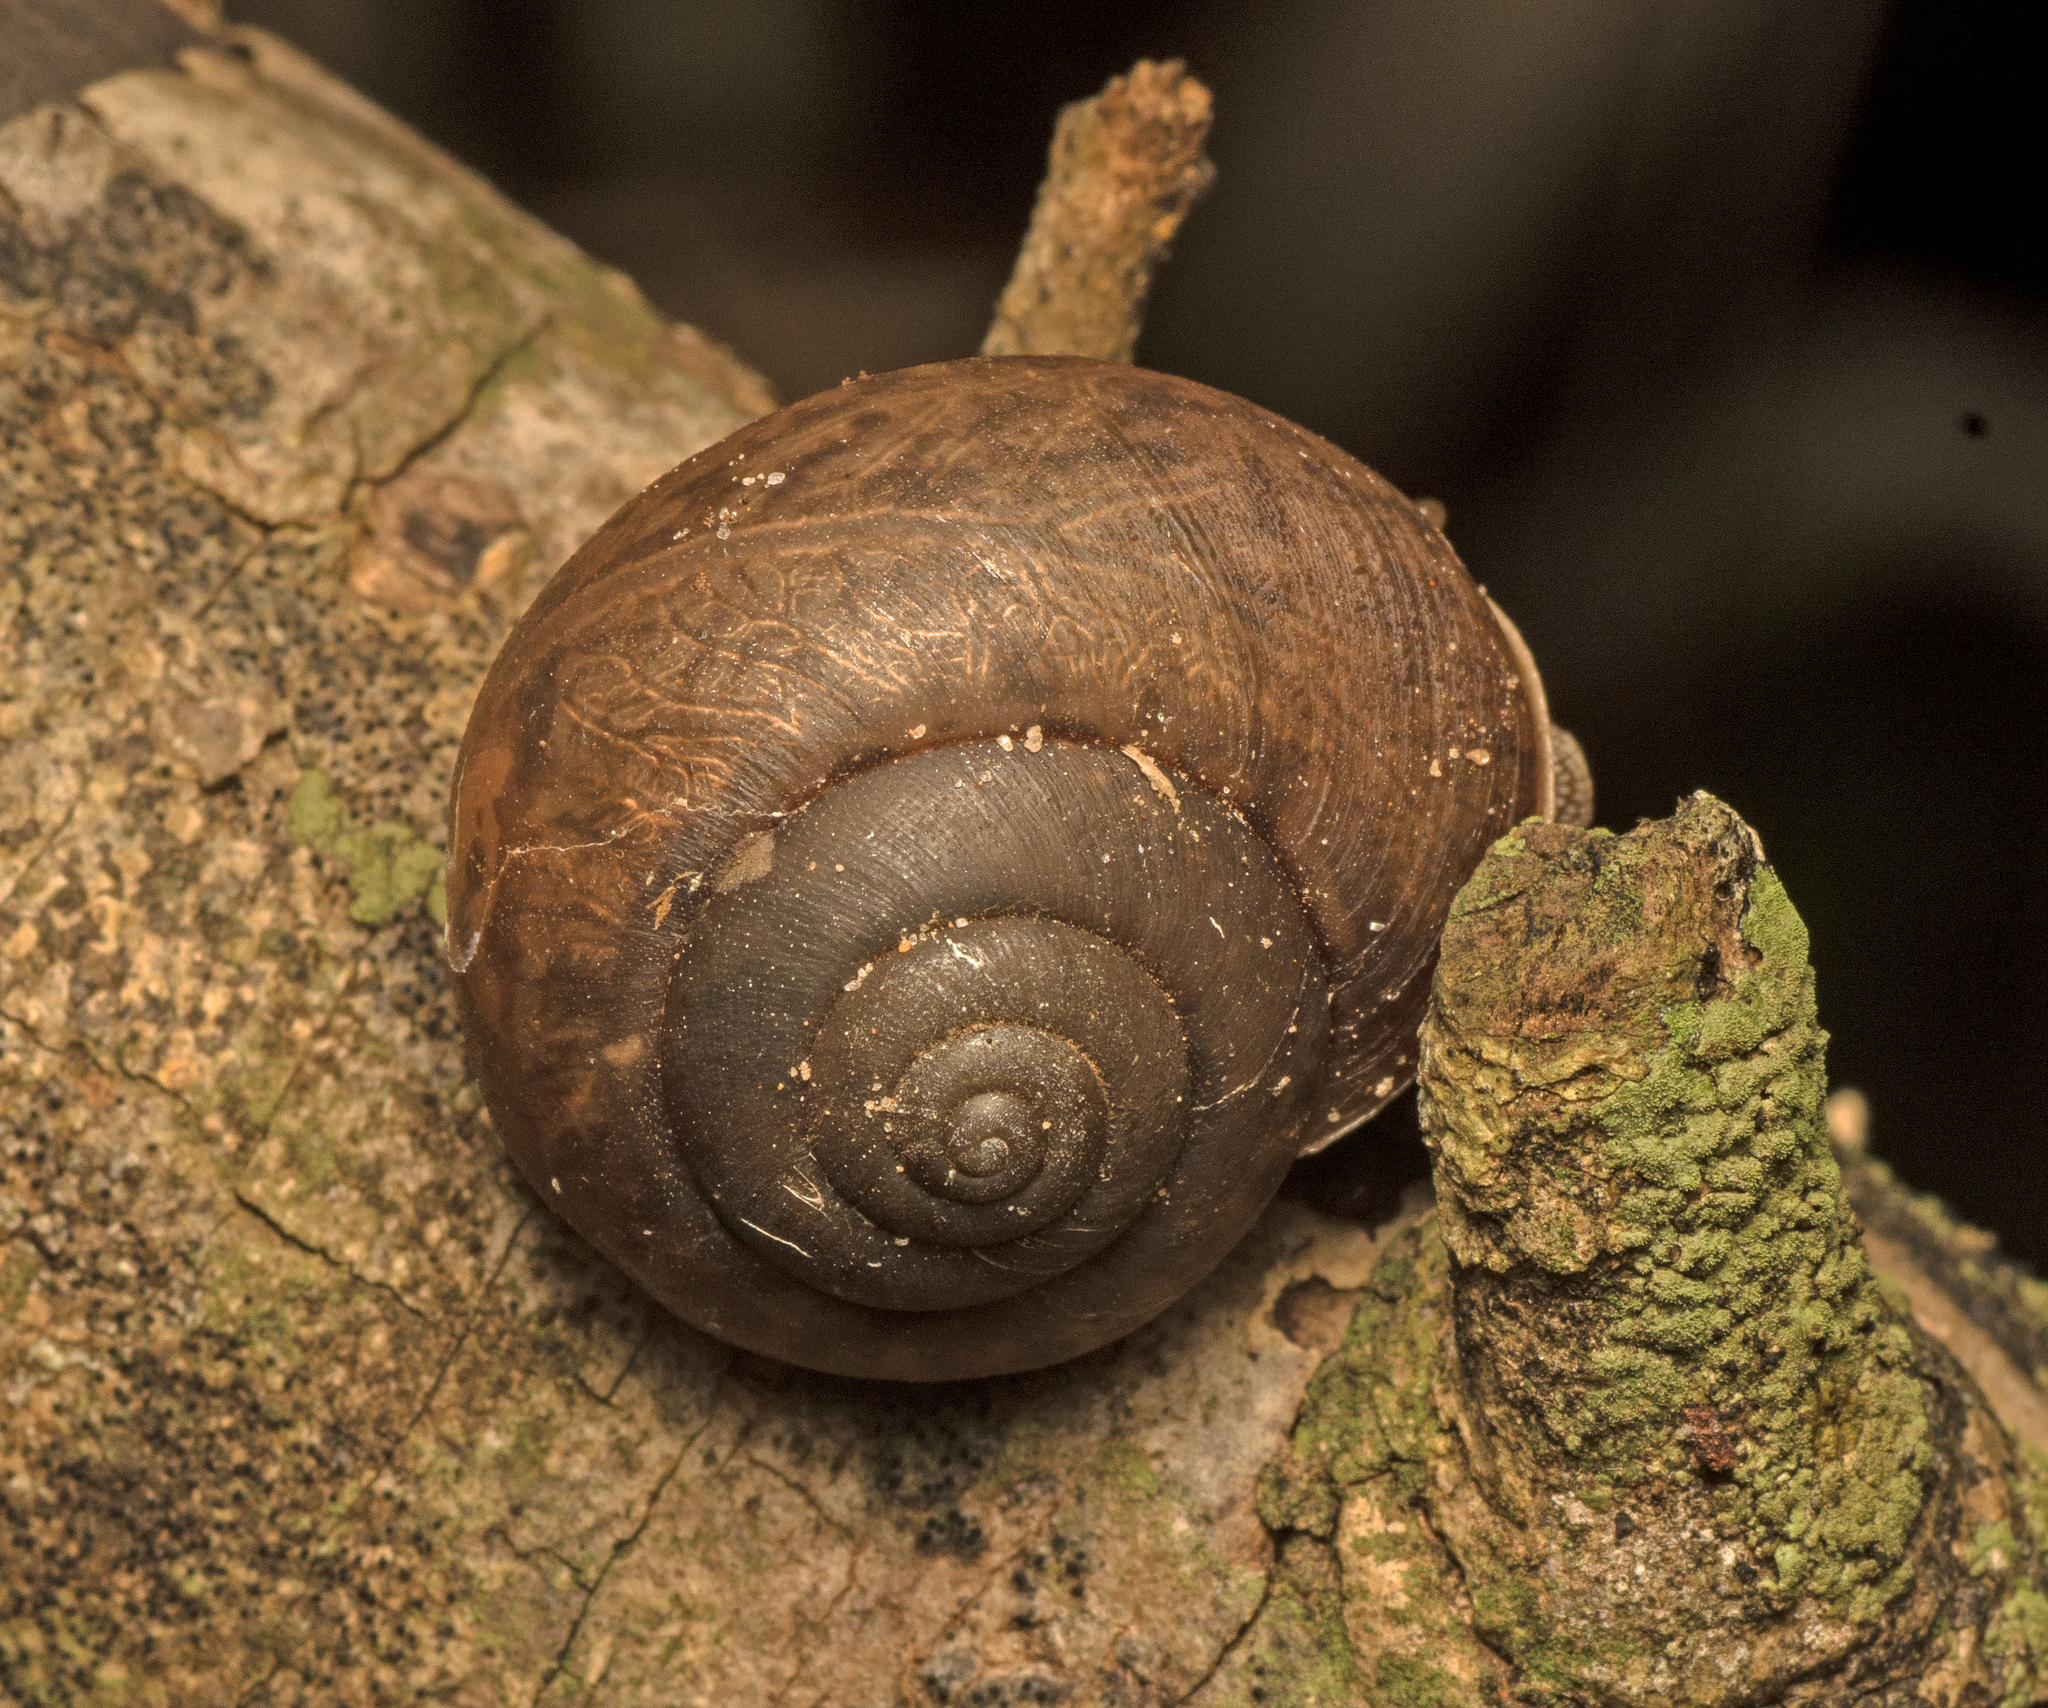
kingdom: Animalia
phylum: Mollusca
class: Gastropoda
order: Stylommatophora
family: Camaenidae
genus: Parglogenia
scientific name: Parglogenia pelodes
